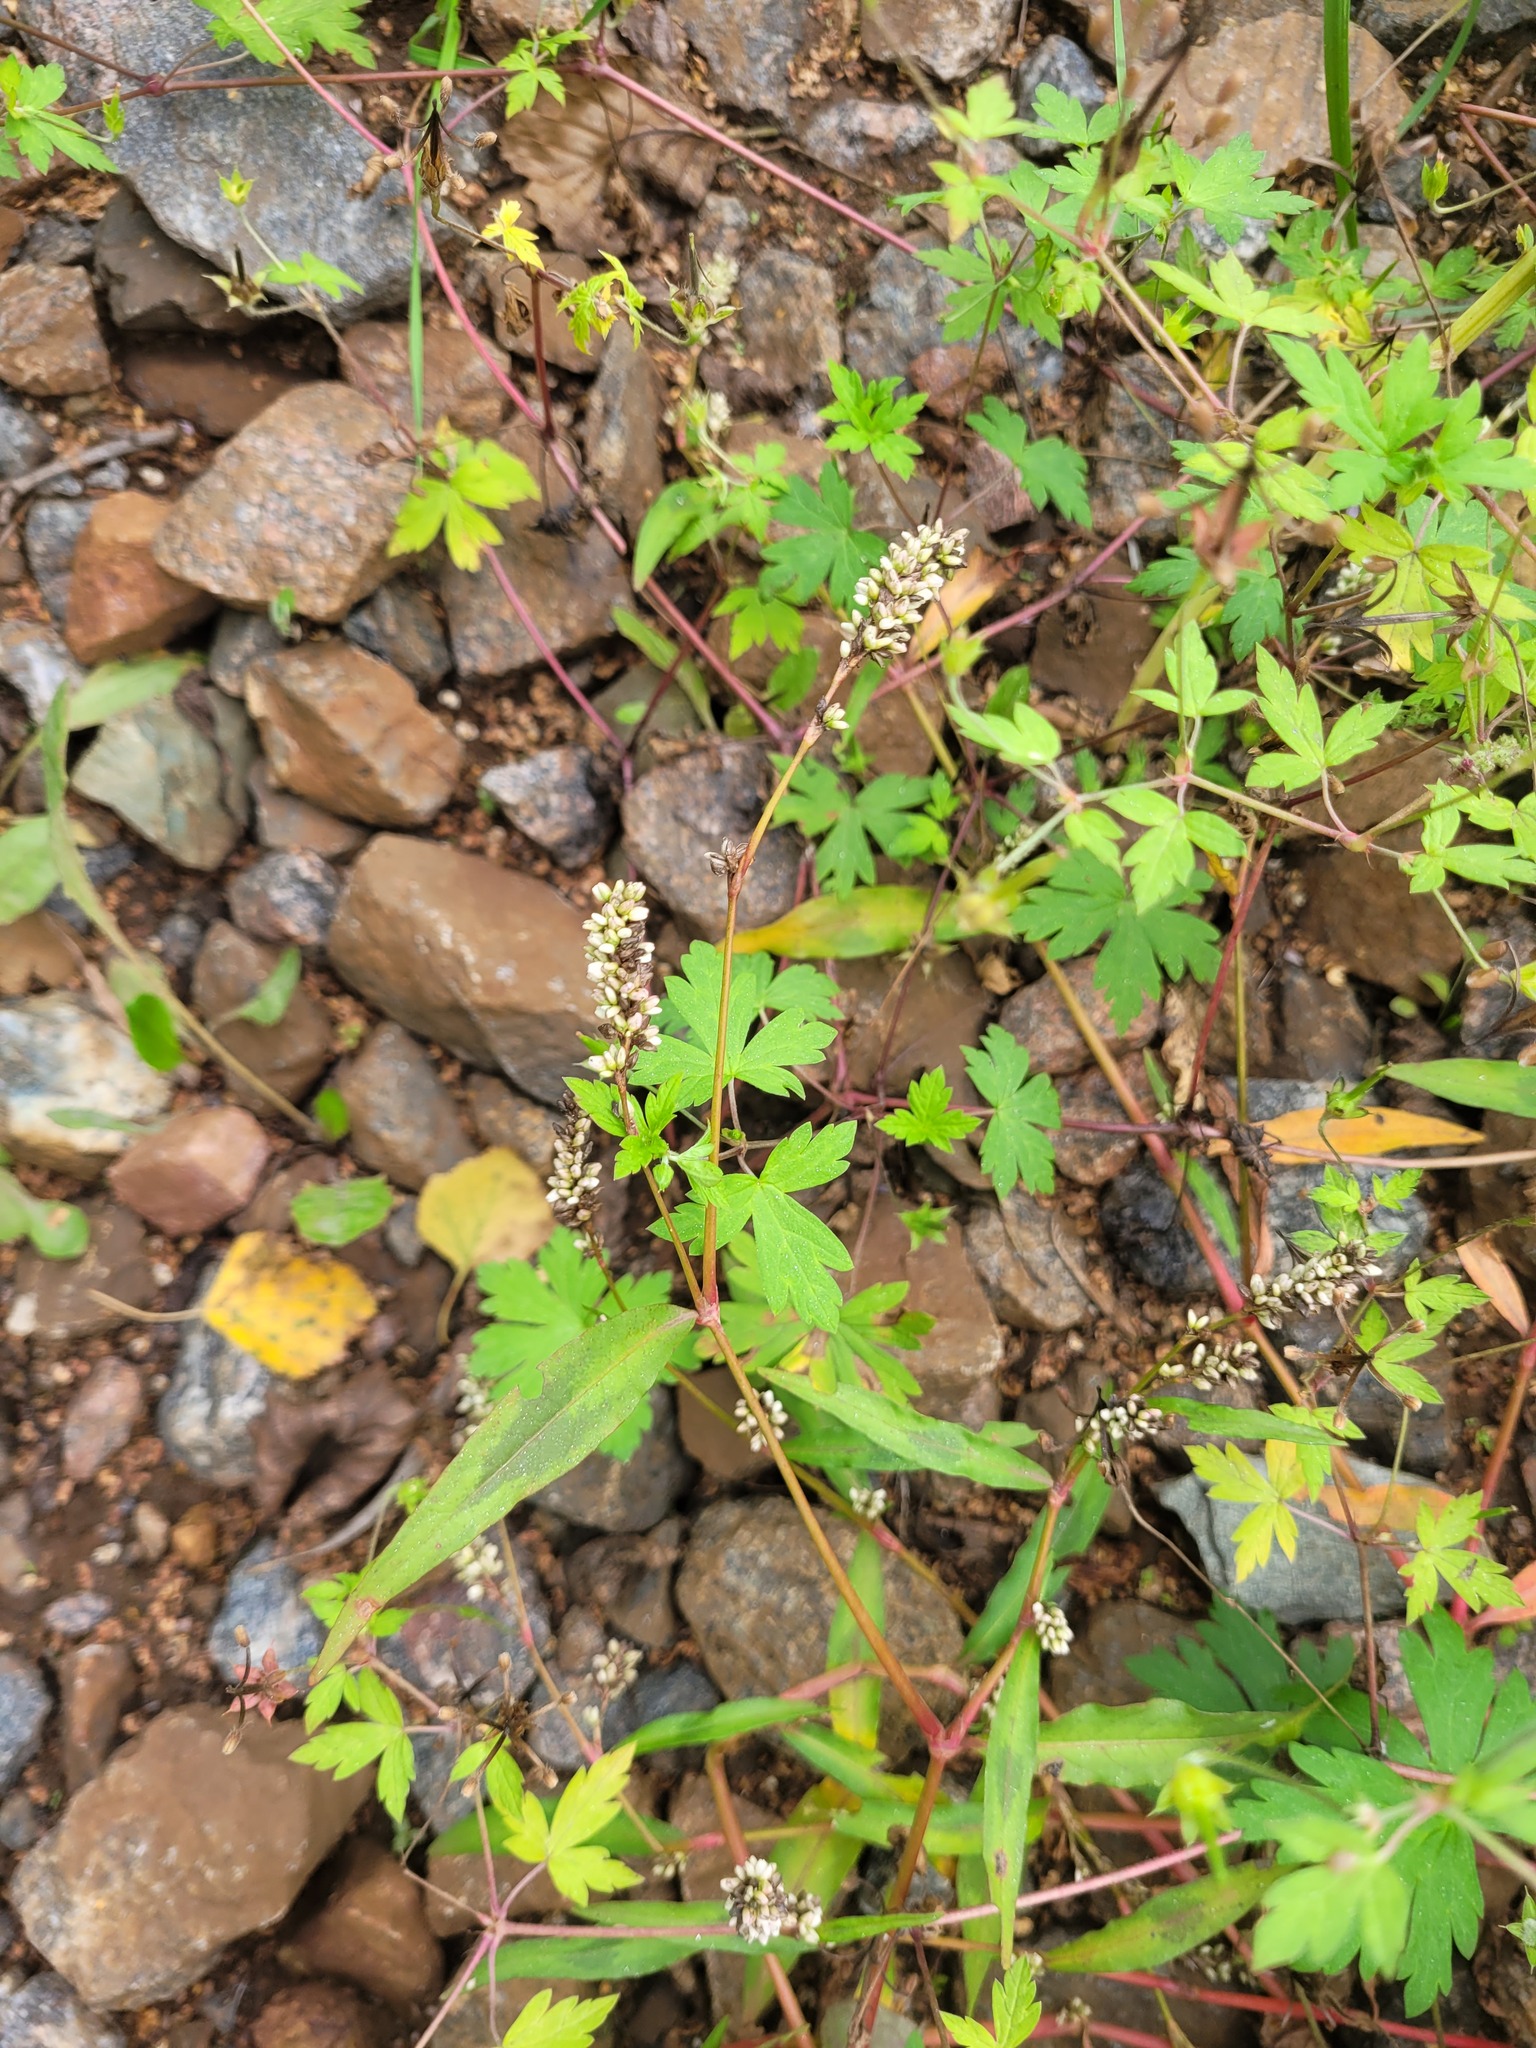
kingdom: Plantae
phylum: Tracheophyta
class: Magnoliopsida
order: Caryophyllales
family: Polygonaceae
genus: Persicaria
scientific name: Persicaria maculosa
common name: Redshank
